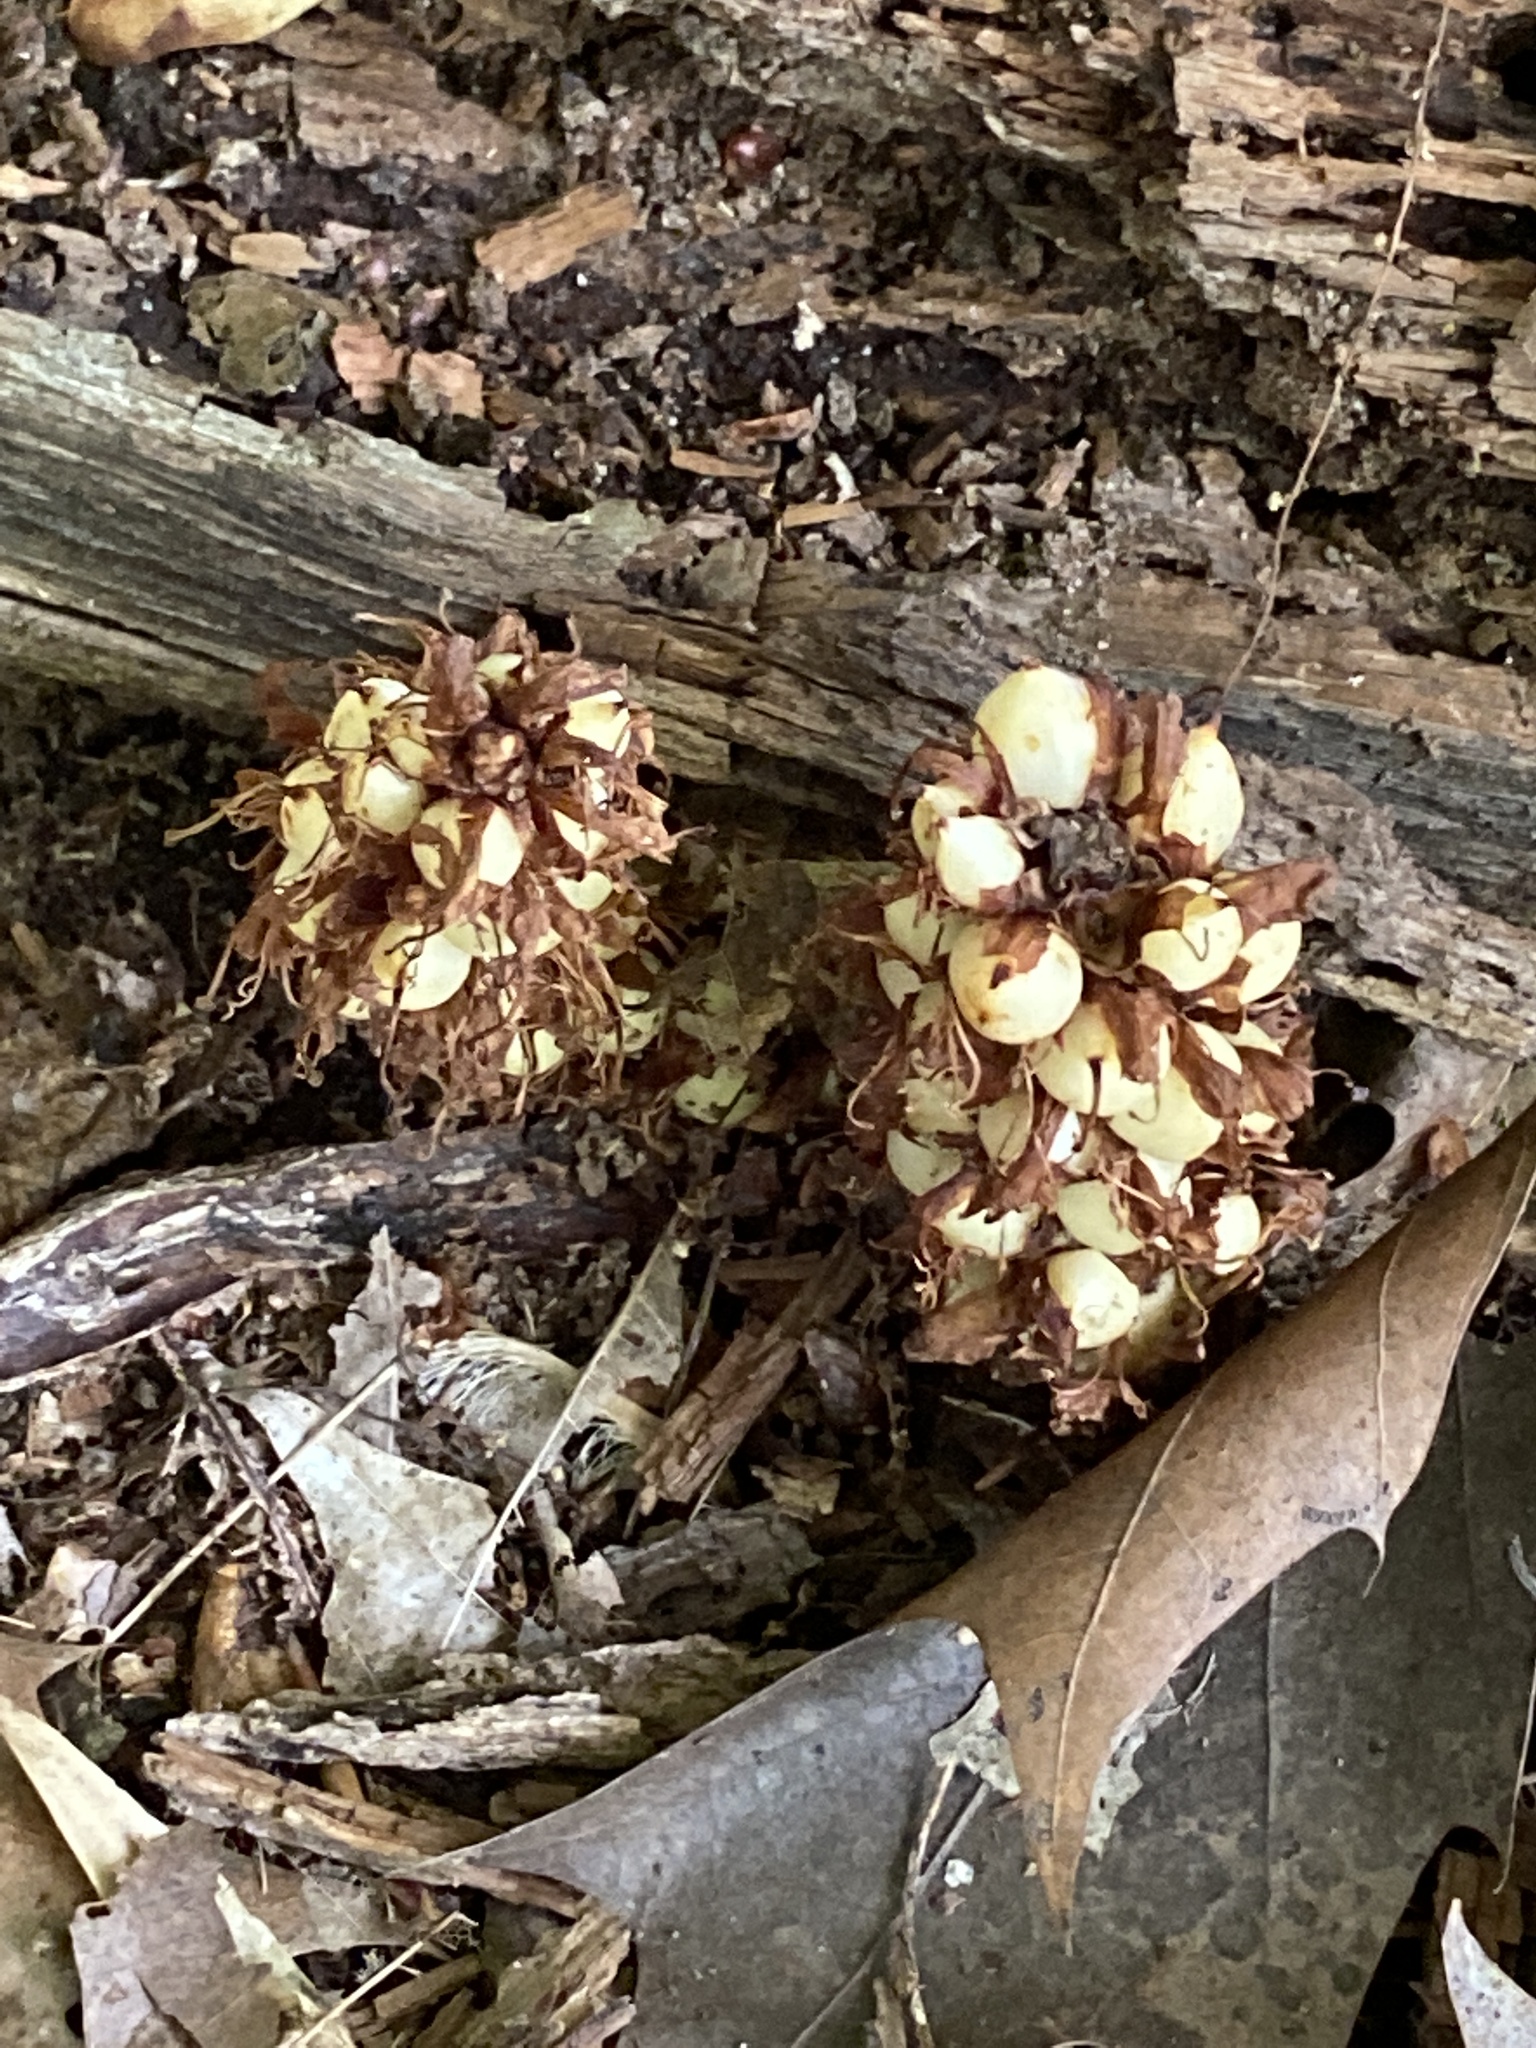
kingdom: Plantae
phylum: Tracheophyta
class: Magnoliopsida
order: Lamiales
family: Orobanchaceae
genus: Conopholis
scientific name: Conopholis americana
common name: American cancer-root
